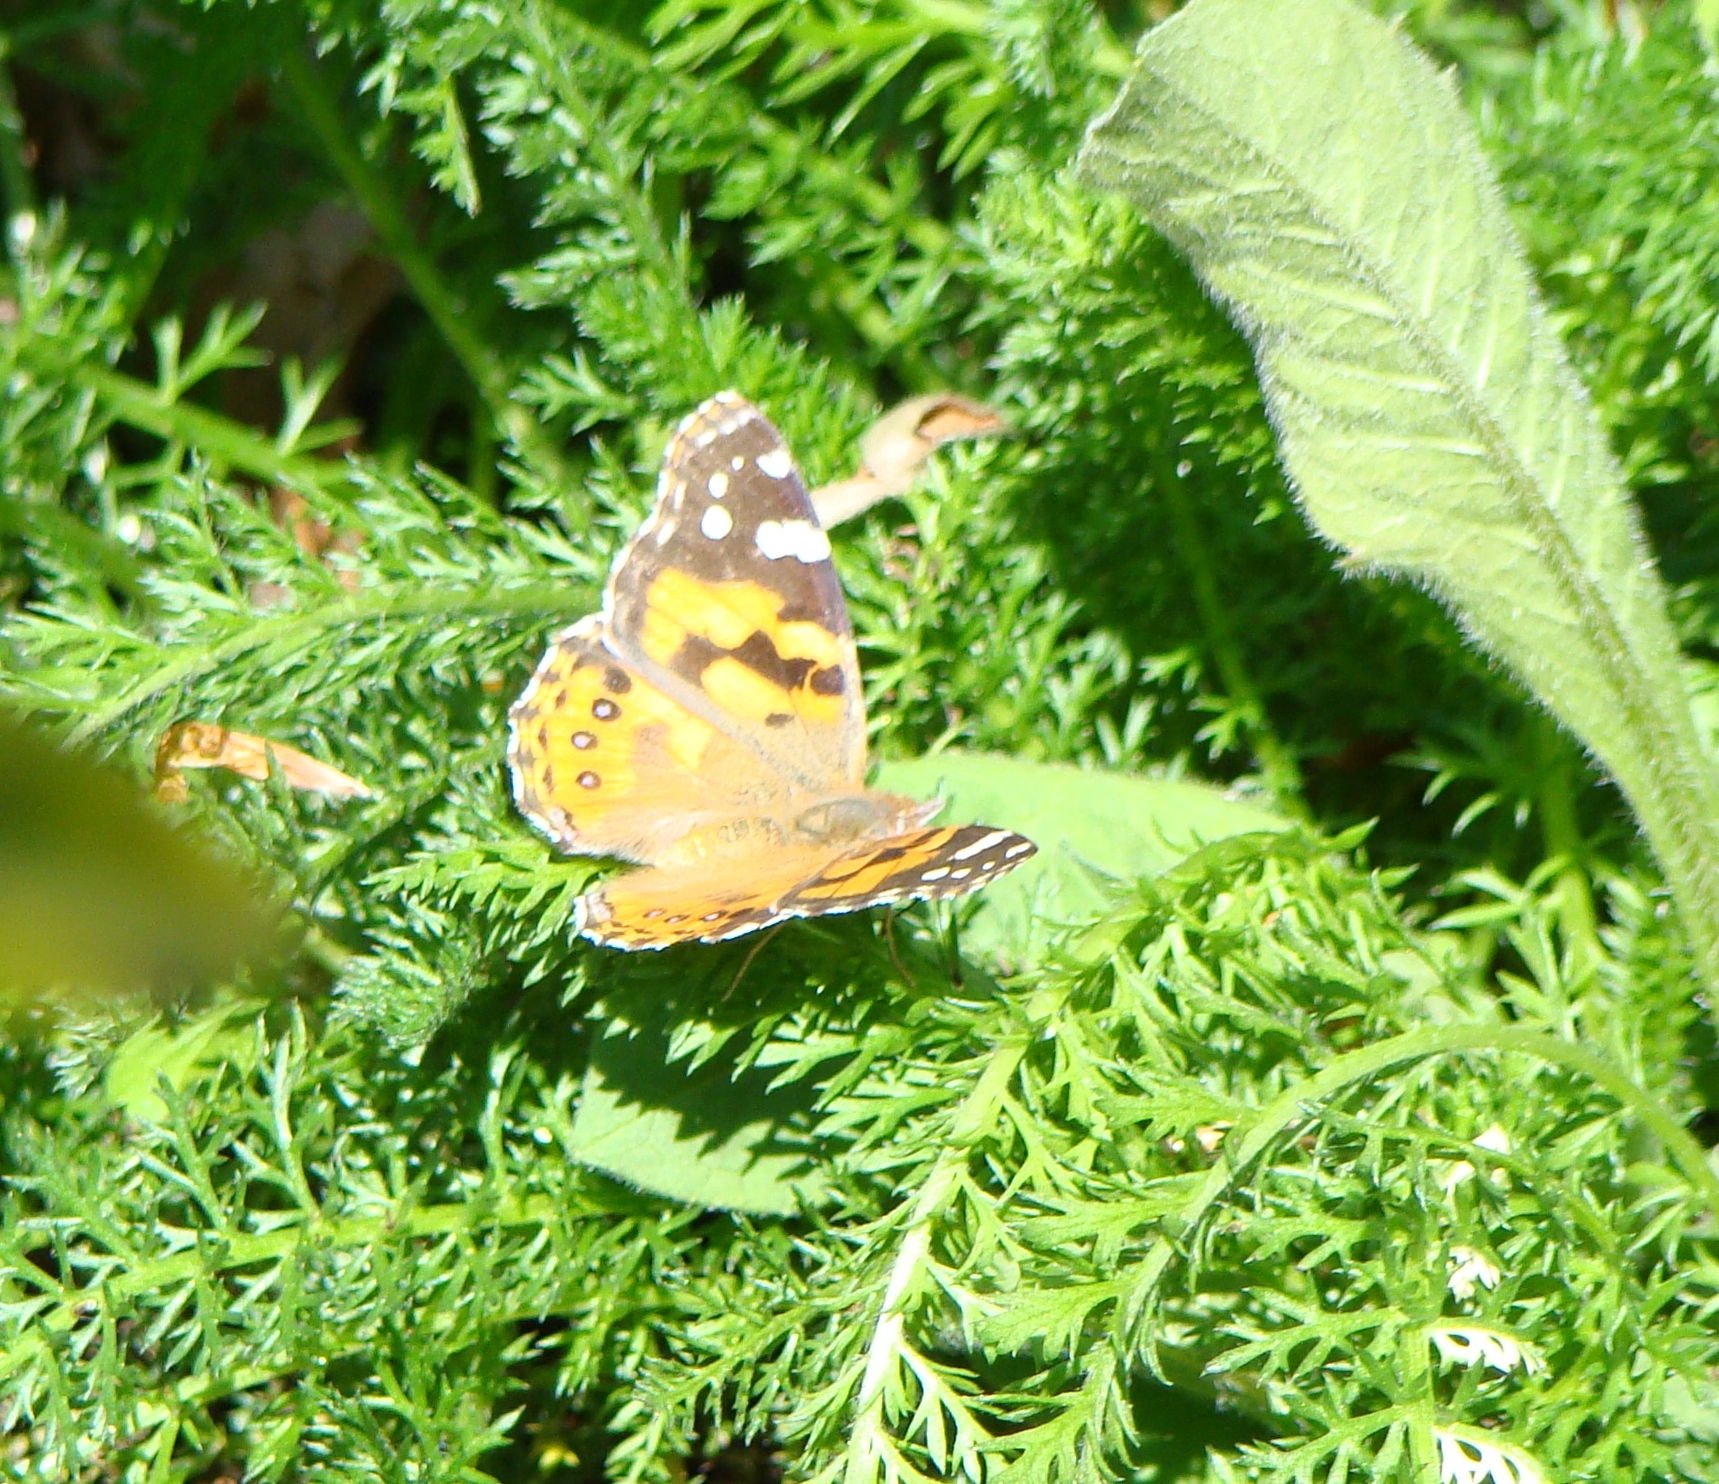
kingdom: Animalia
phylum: Arthropoda
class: Insecta
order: Lepidoptera
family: Nymphalidae
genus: Vanessa
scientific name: Vanessa kershawi
